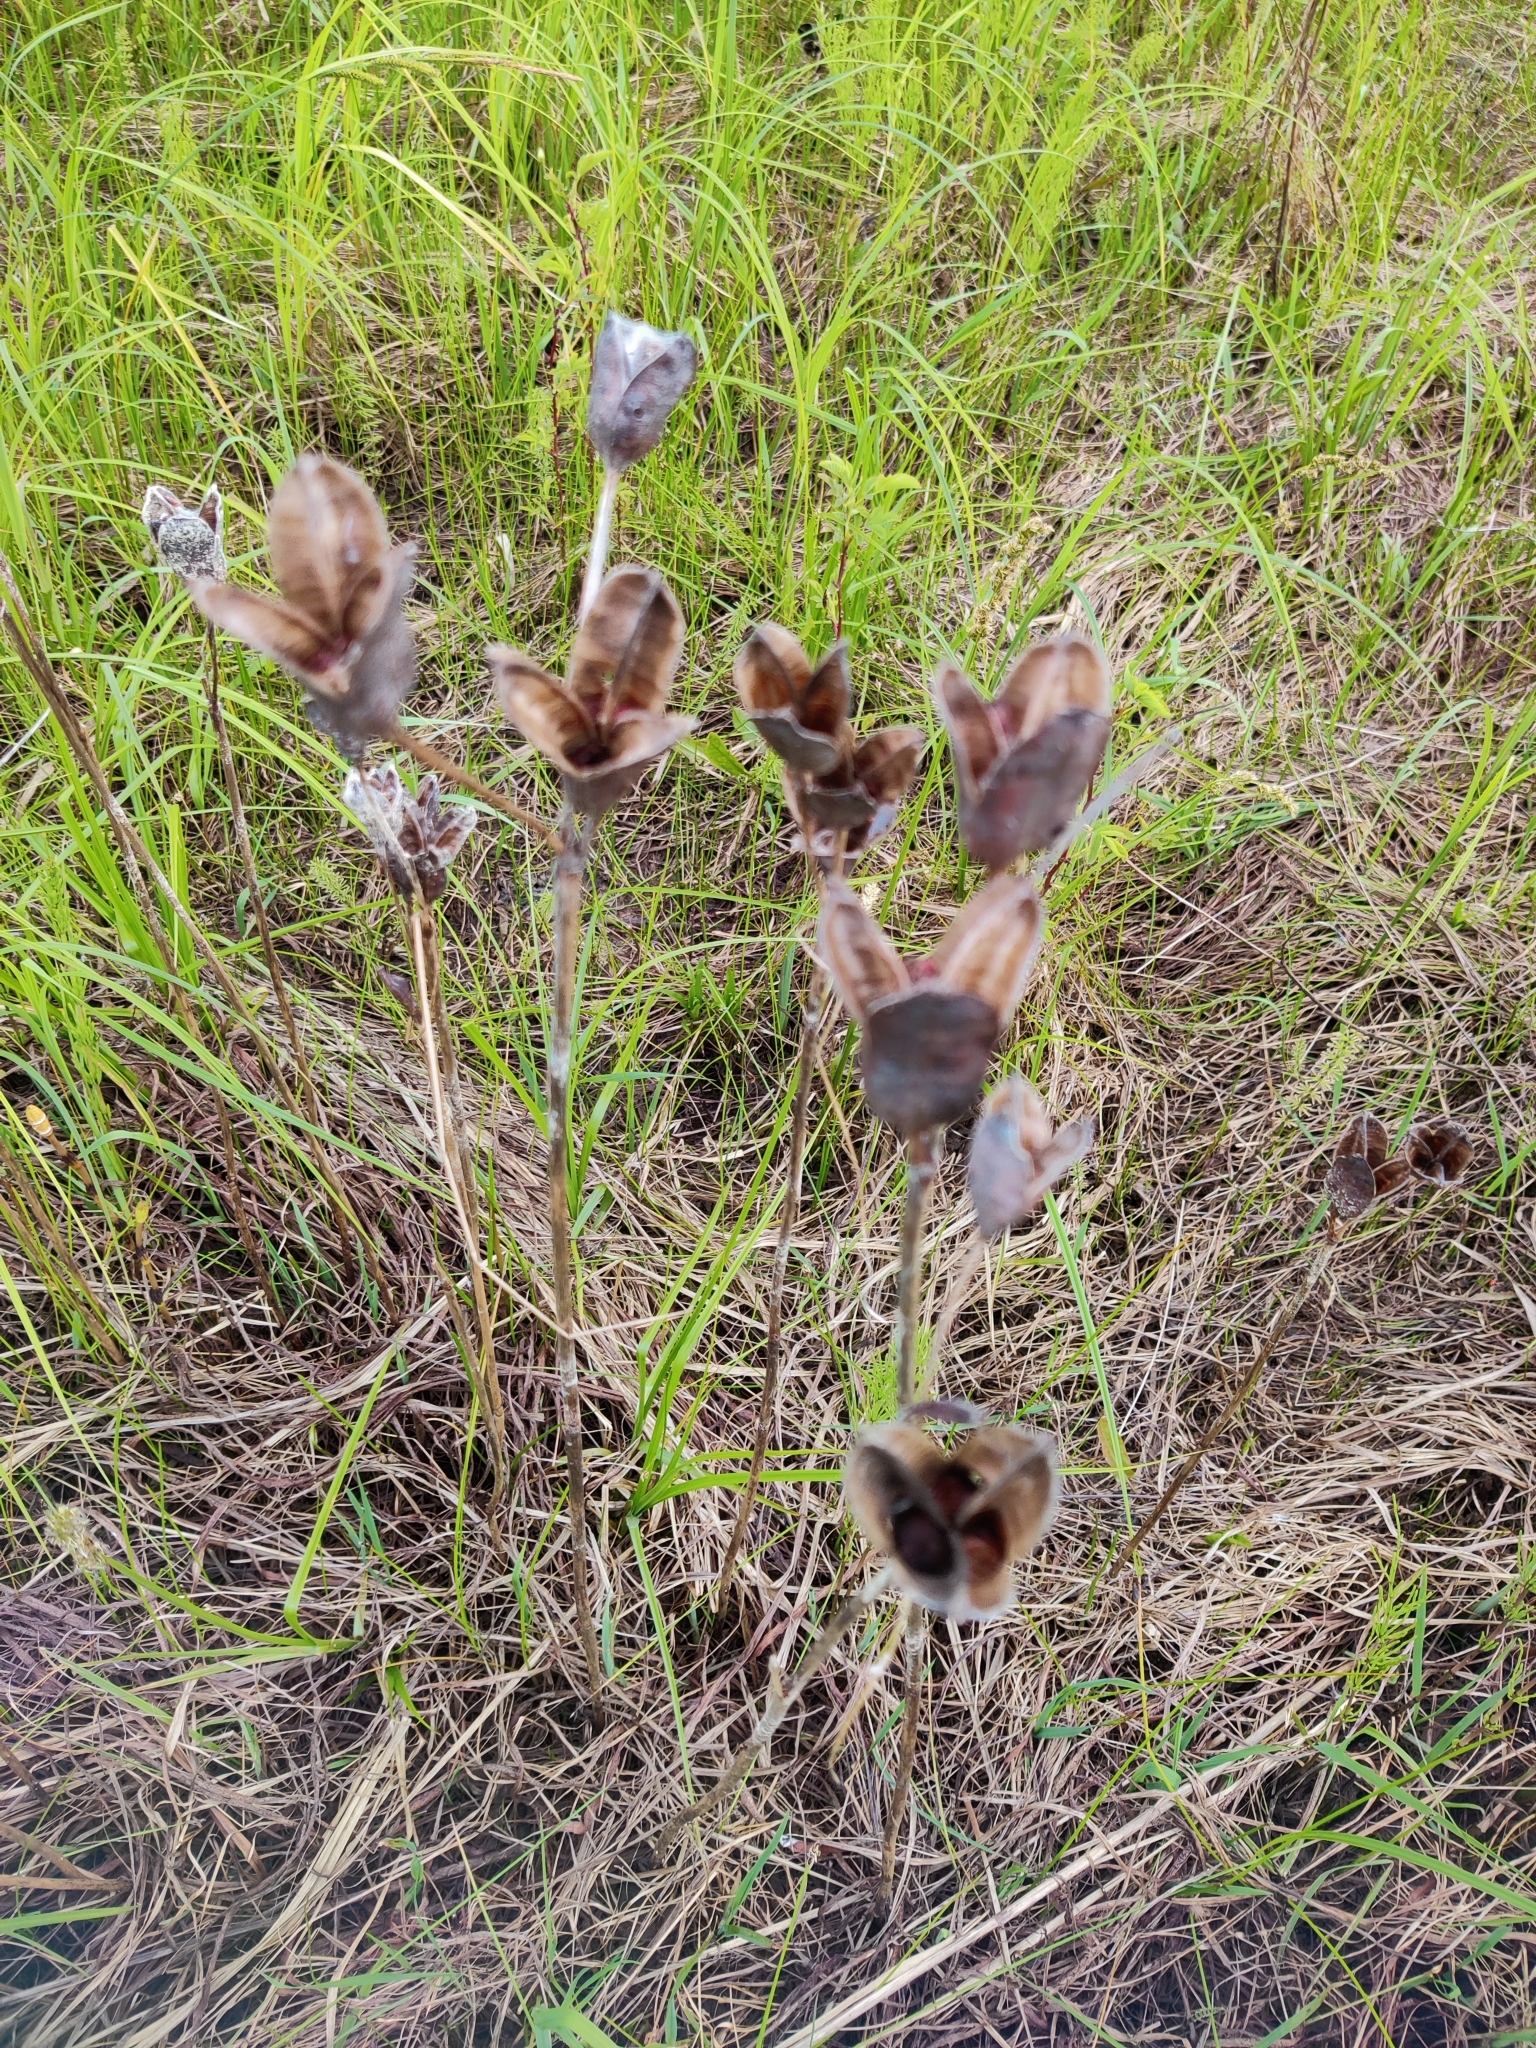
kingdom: Plantae
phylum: Tracheophyta
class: Liliopsida
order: Asparagales
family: Iridaceae
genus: Iris
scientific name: Iris sibirica
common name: Siberian iris
